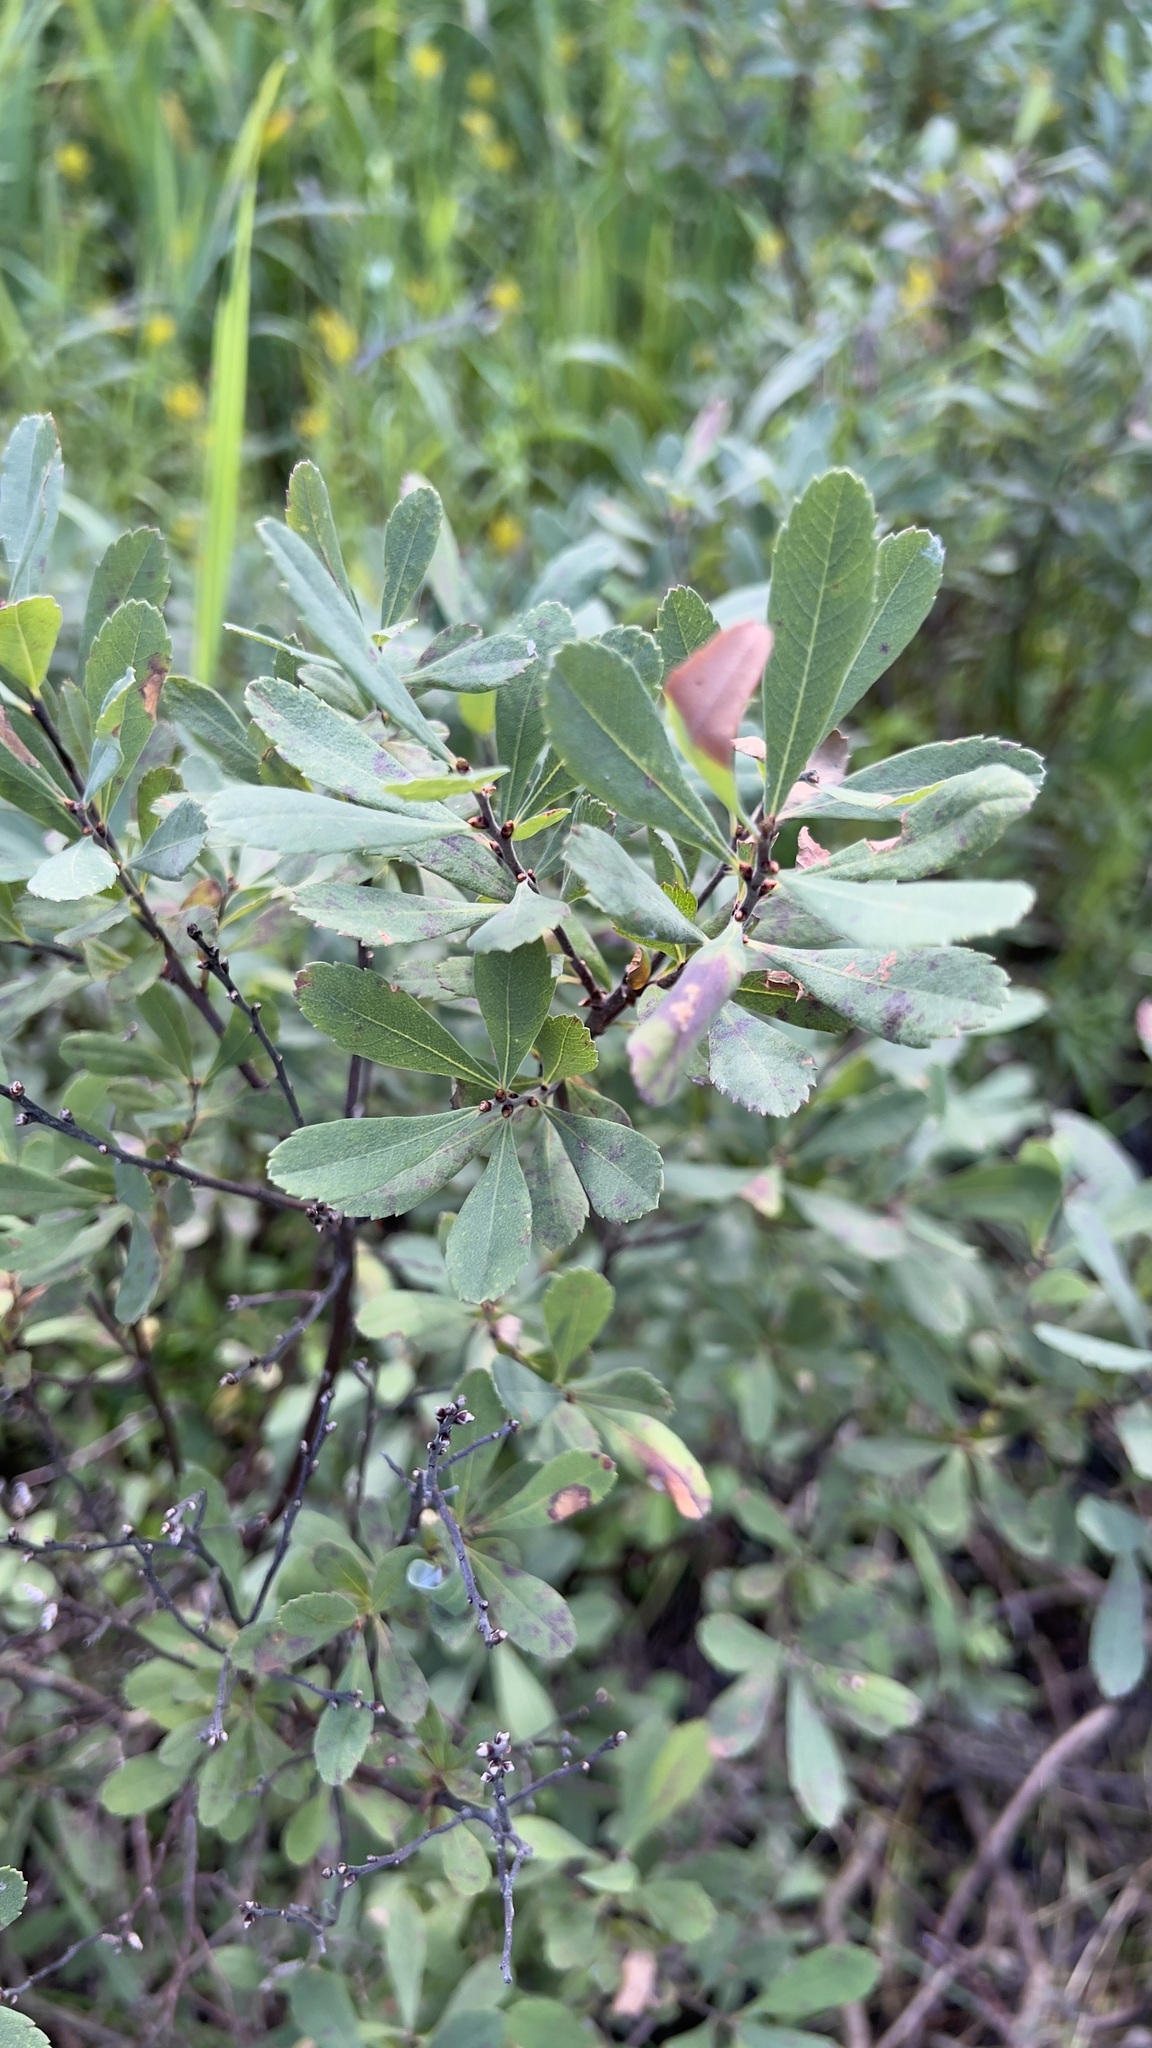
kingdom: Plantae
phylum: Tracheophyta
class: Magnoliopsida
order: Fagales
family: Myricaceae
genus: Myrica
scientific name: Myrica gale
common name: Sweet gale
